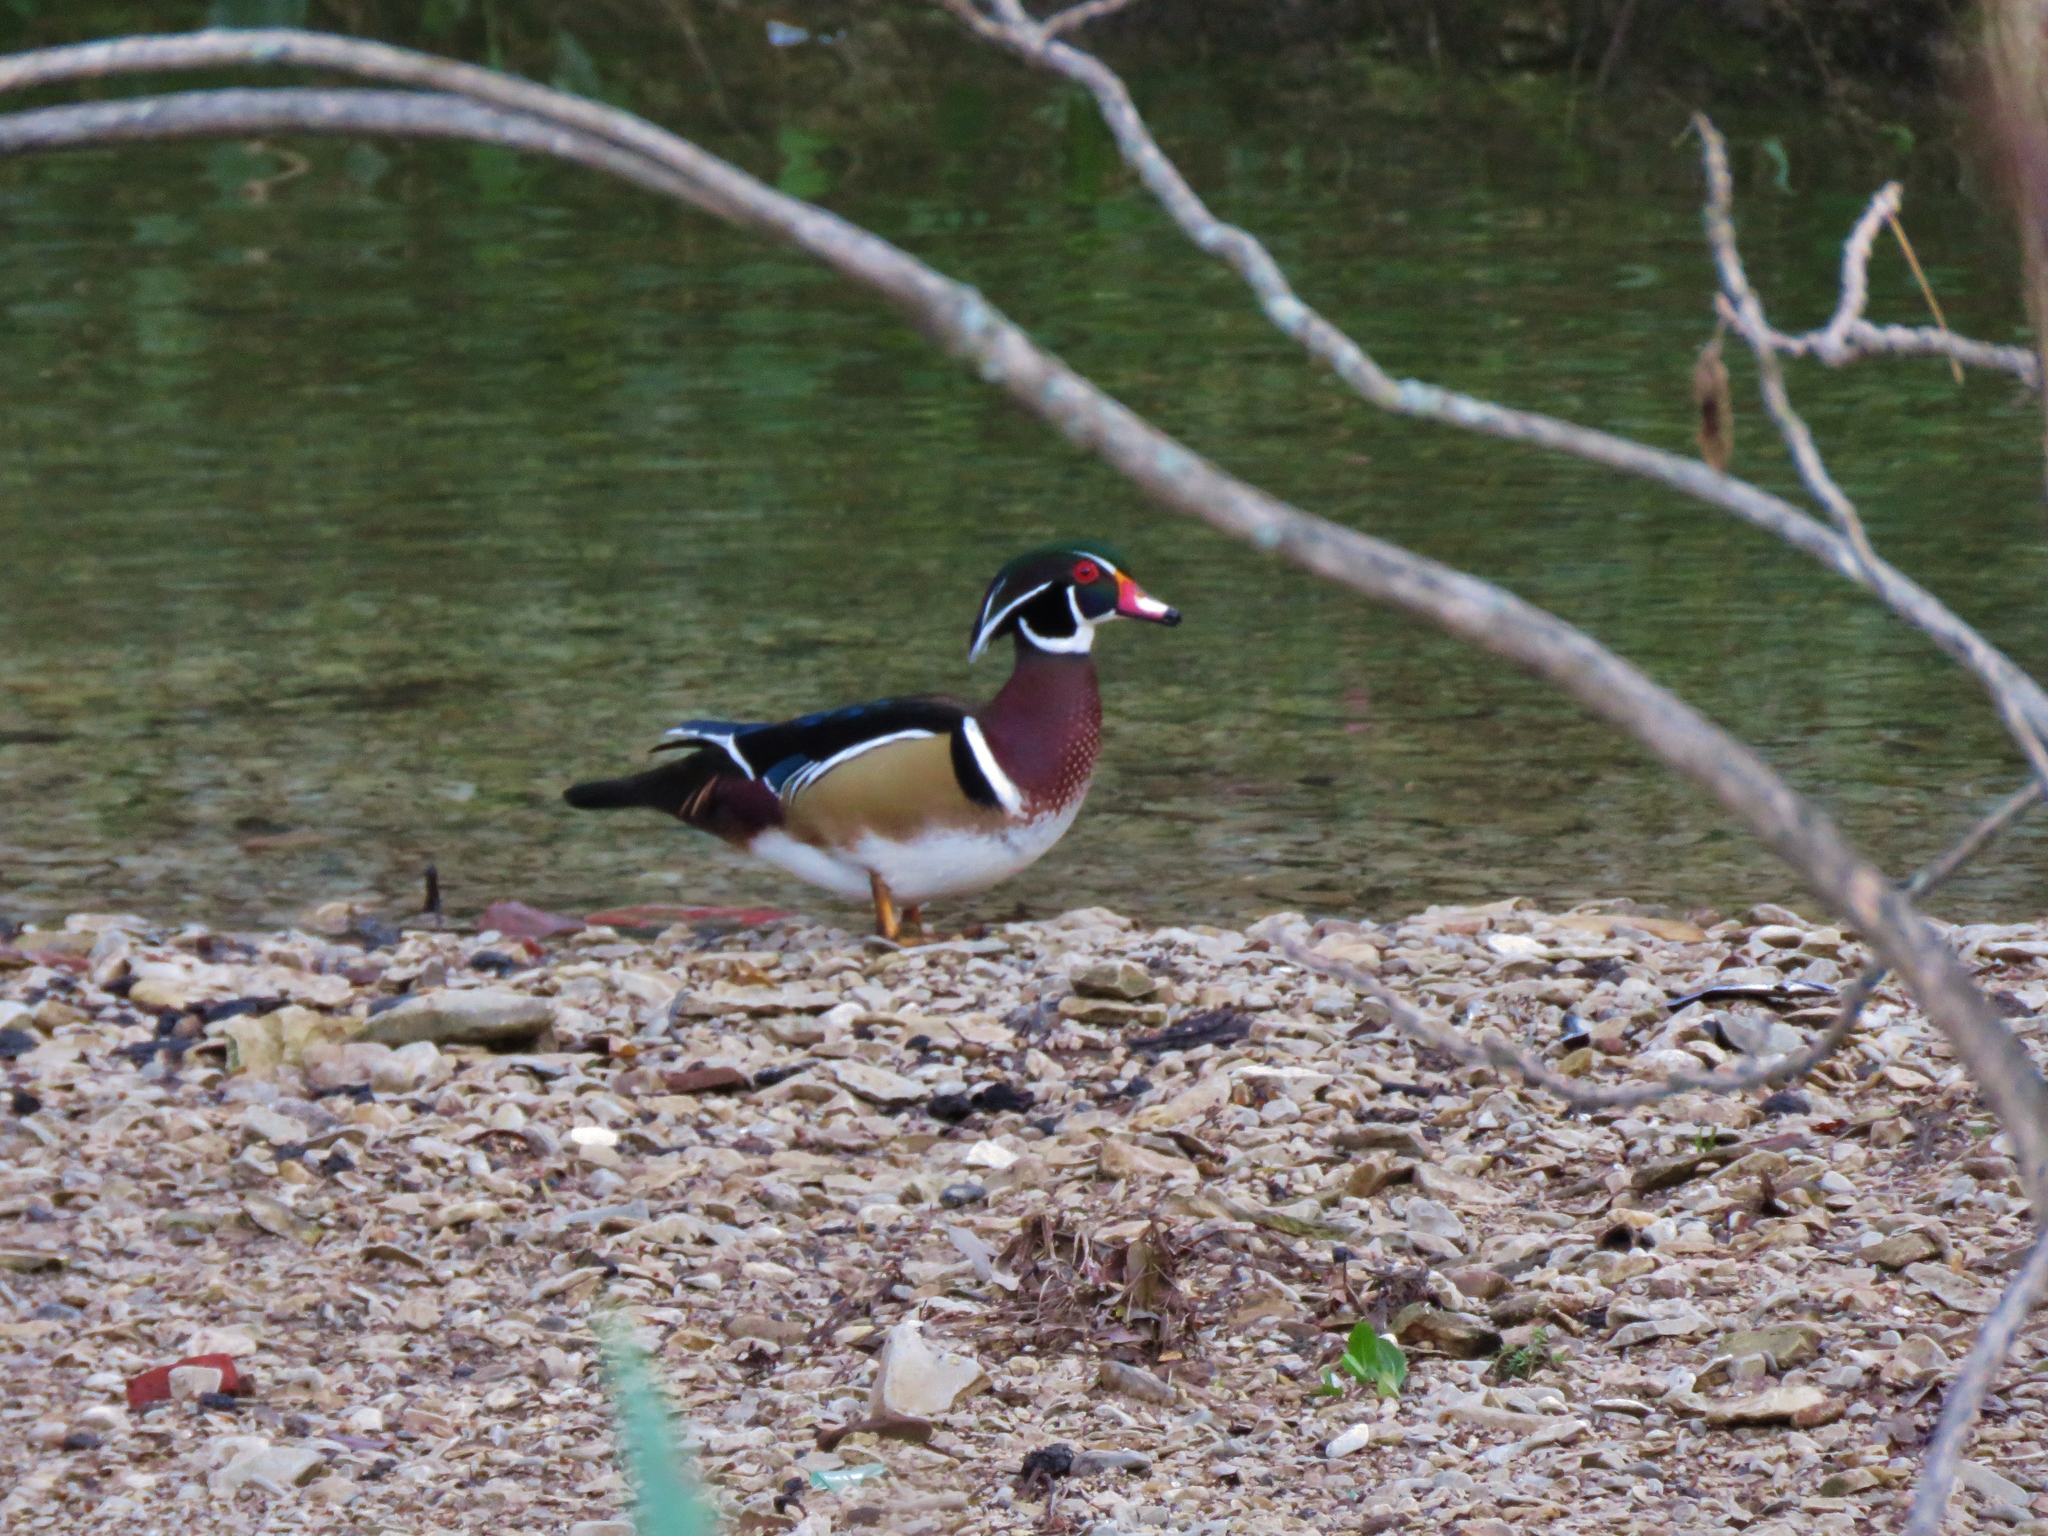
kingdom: Animalia
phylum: Chordata
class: Aves
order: Anseriformes
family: Anatidae
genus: Aix
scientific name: Aix sponsa
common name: Wood duck
